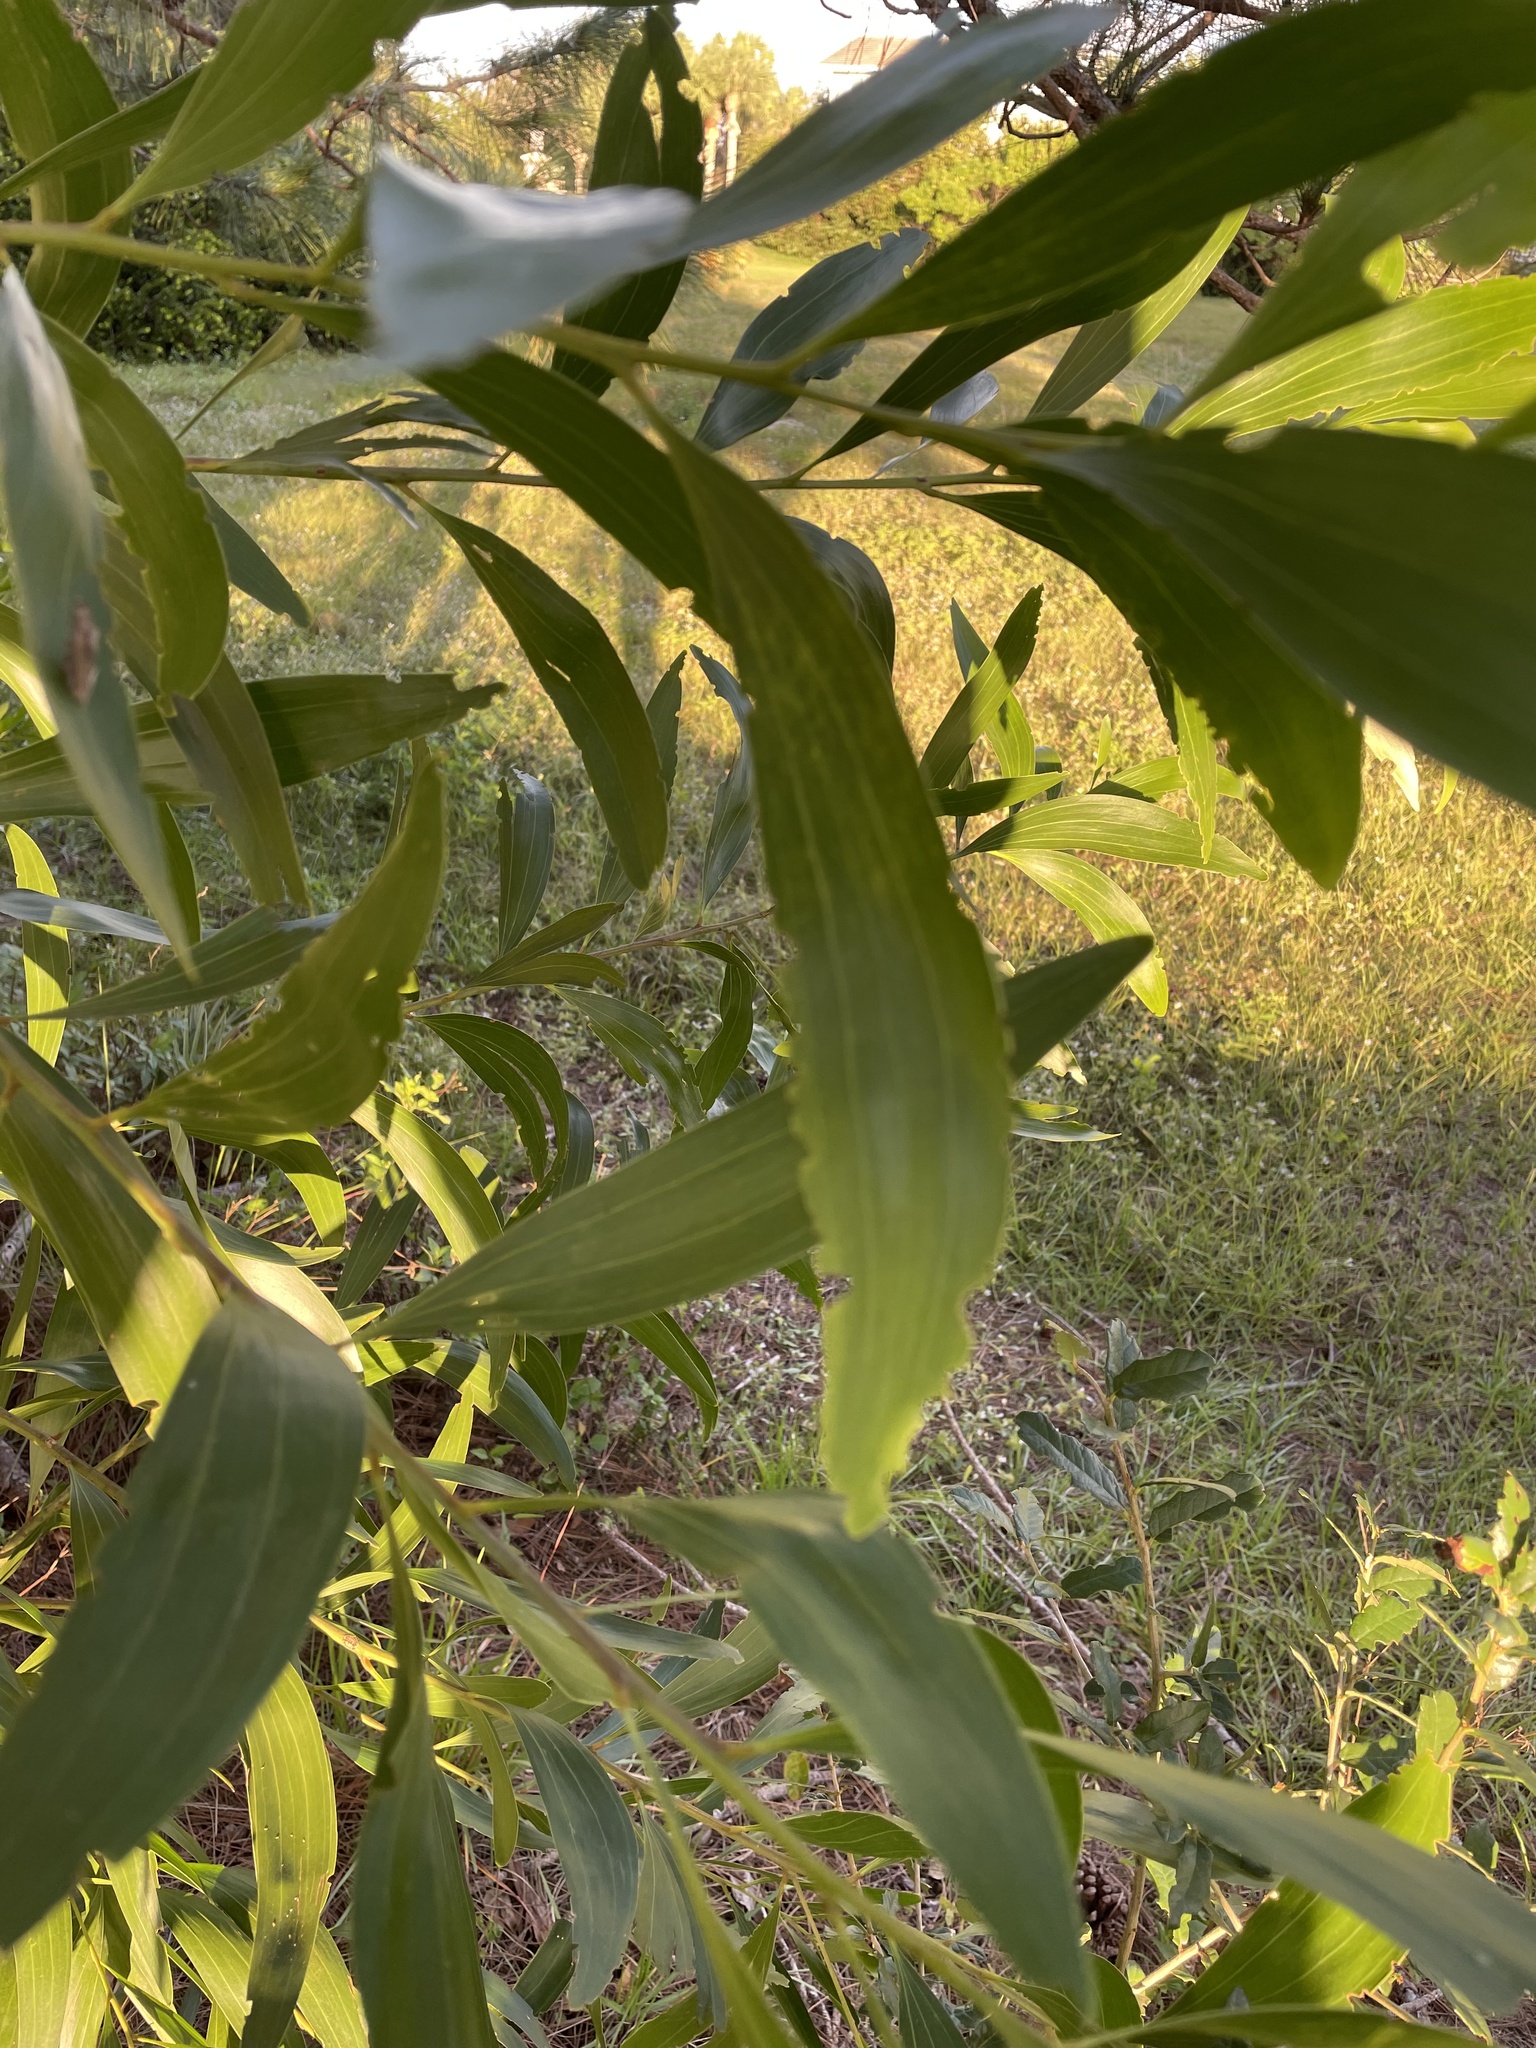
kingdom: Plantae
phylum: Tracheophyta
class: Magnoliopsida
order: Fabales
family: Fabaceae
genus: Acacia
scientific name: Acacia auriculiformis
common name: Earleaf acacia
